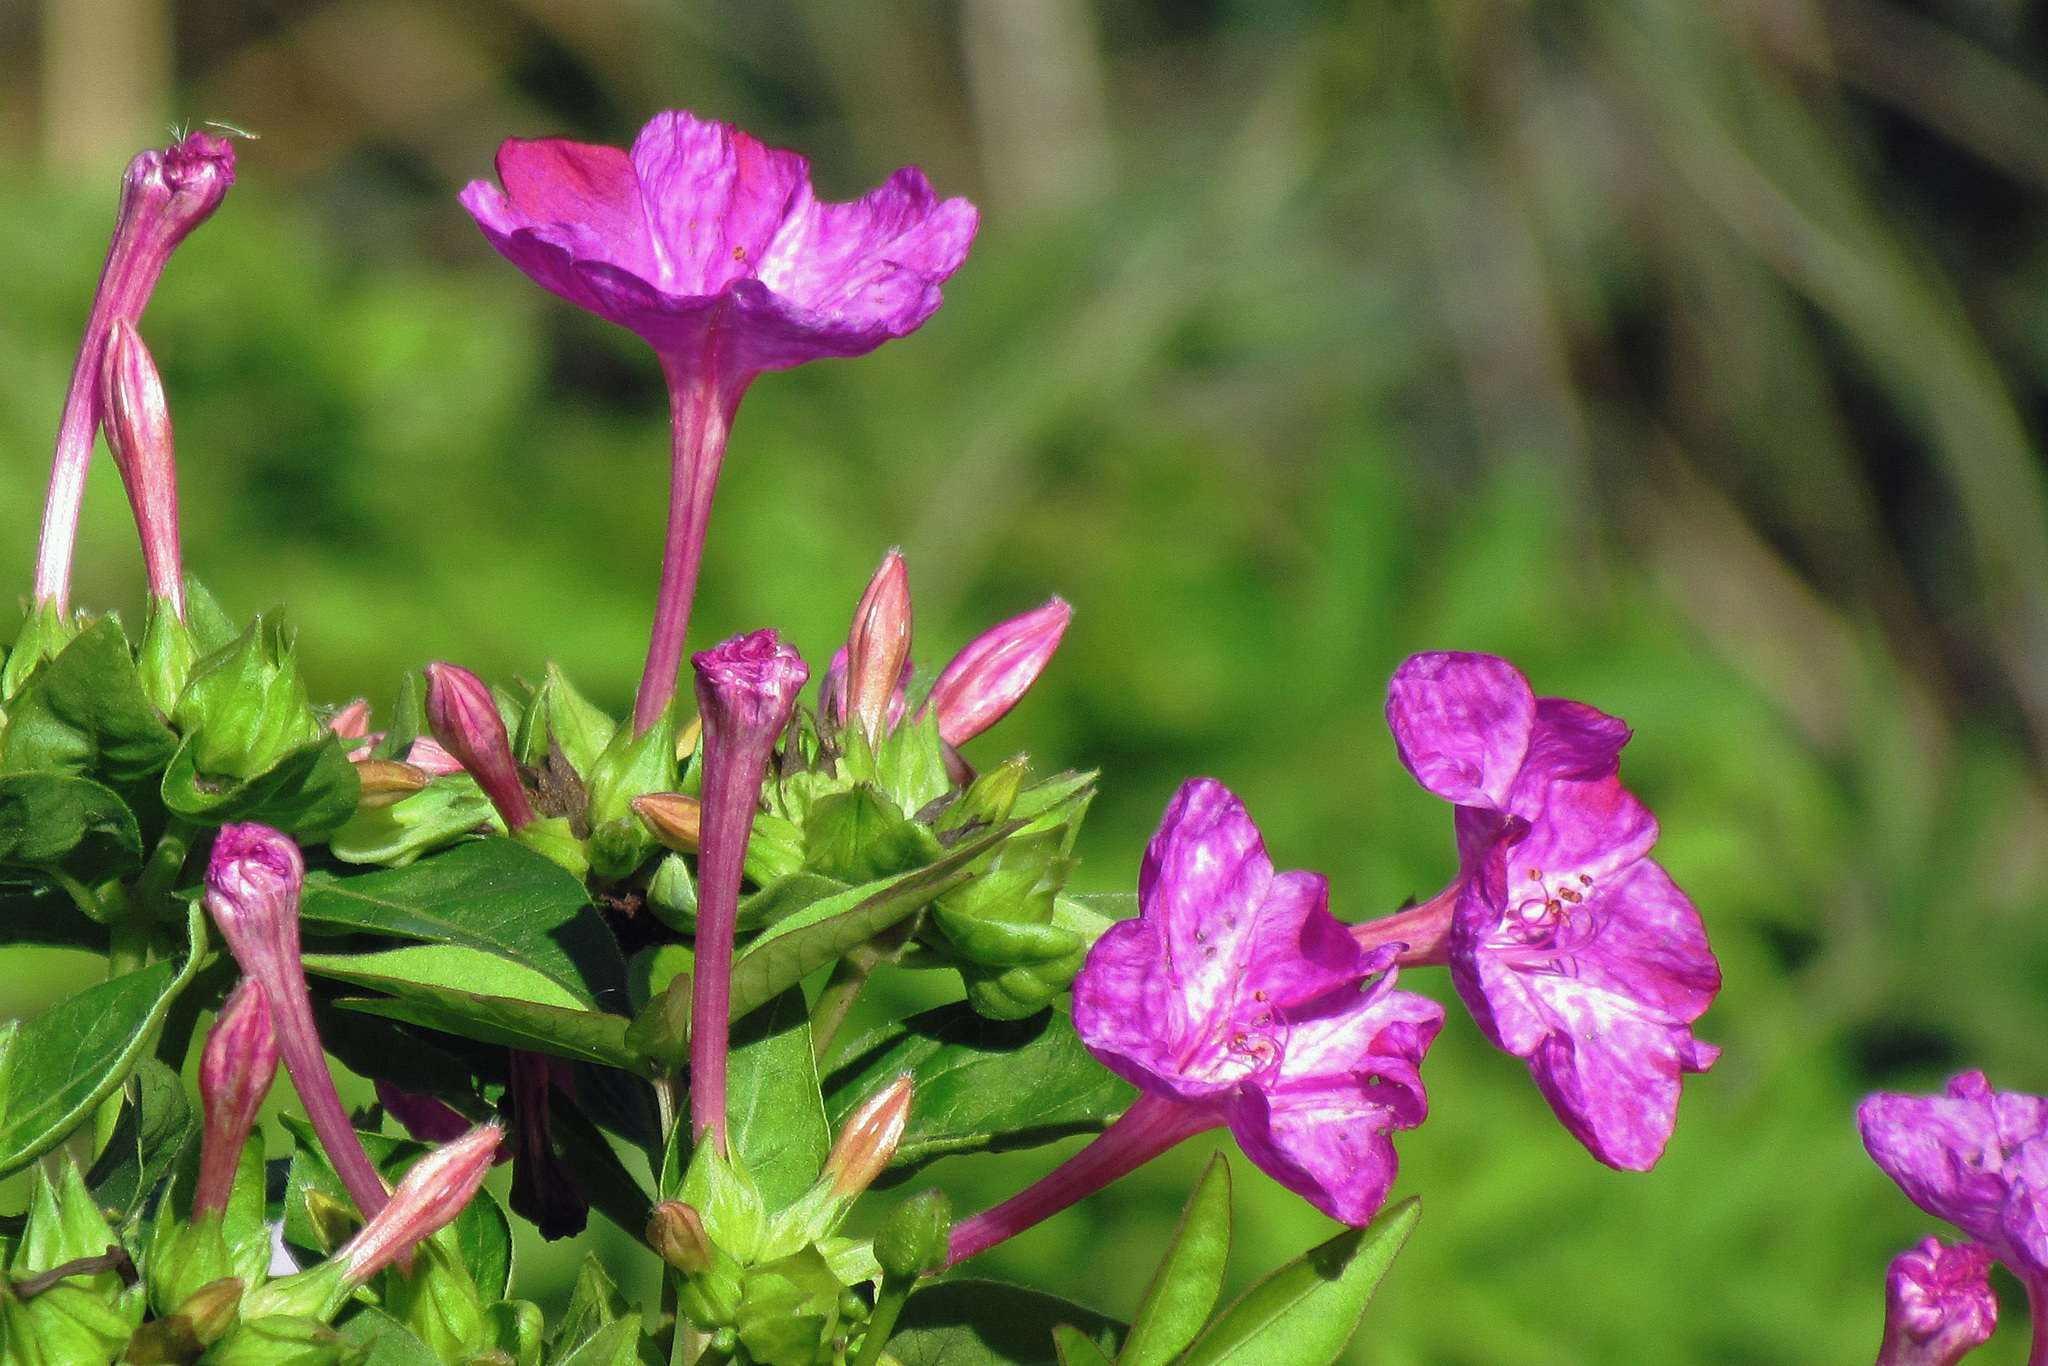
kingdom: Plantae
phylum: Tracheophyta
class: Magnoliopsida
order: Caryophyllales
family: Nyctaginaceae
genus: Mirabilis
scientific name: Mirabilis jalapa
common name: Marvel-of-peru
